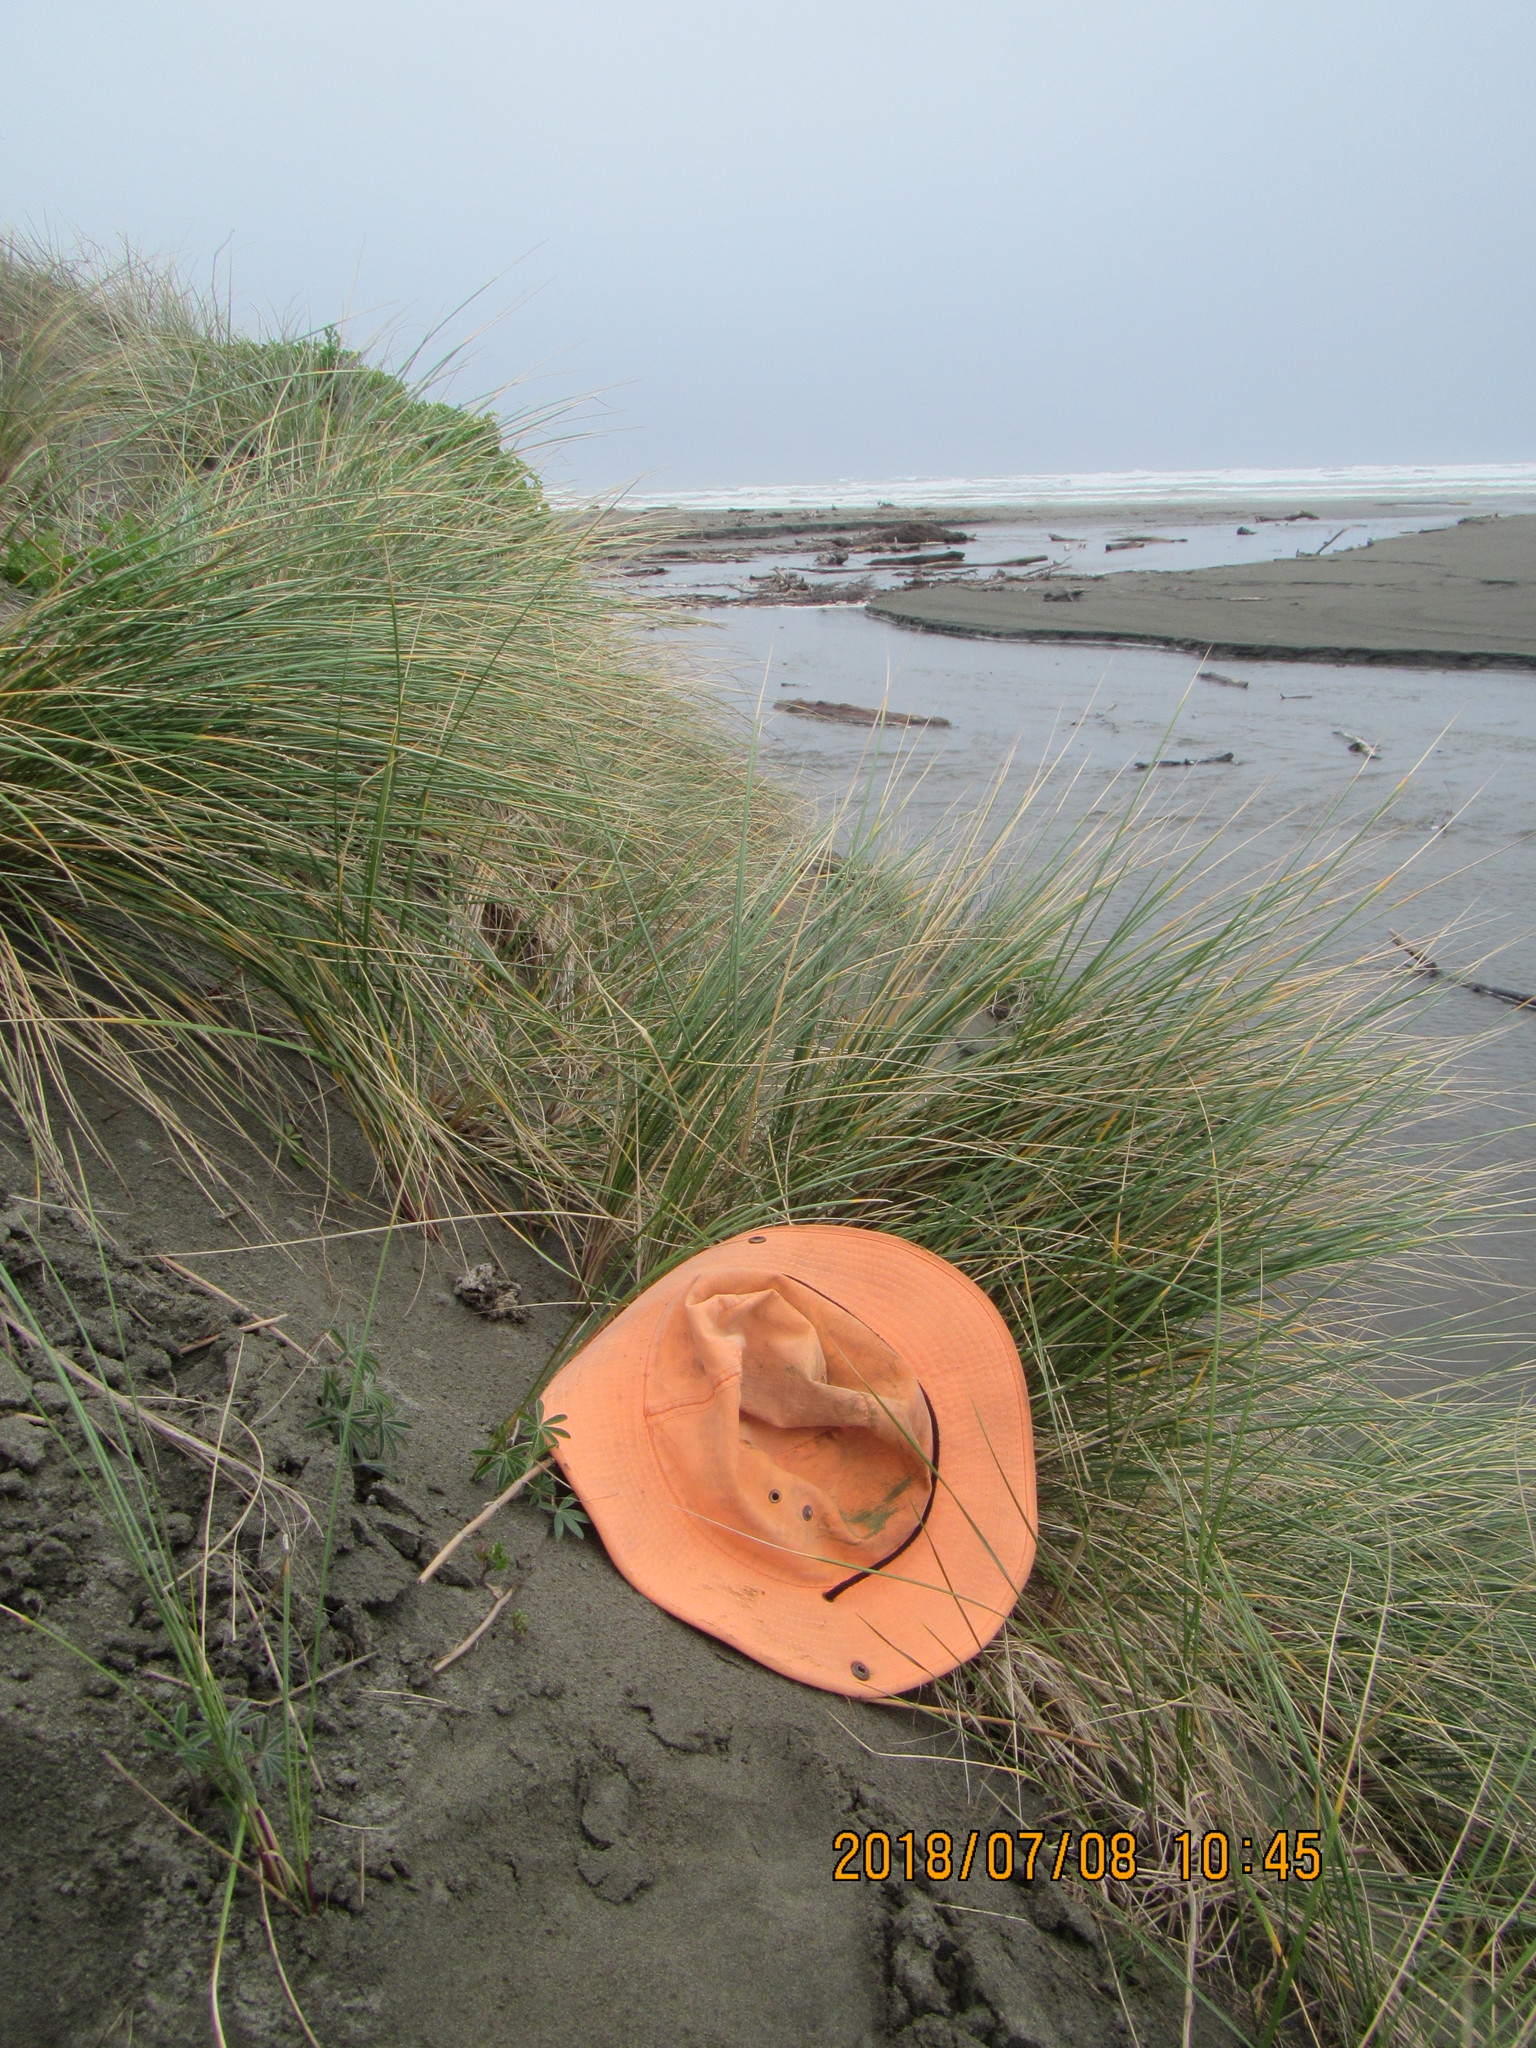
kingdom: Fungi
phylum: Basidiomycota
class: Agaricomycetes
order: Phallales
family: Phallaceae
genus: Ileodictyon
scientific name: Ileodictyon cibarium
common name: Basket fungus
